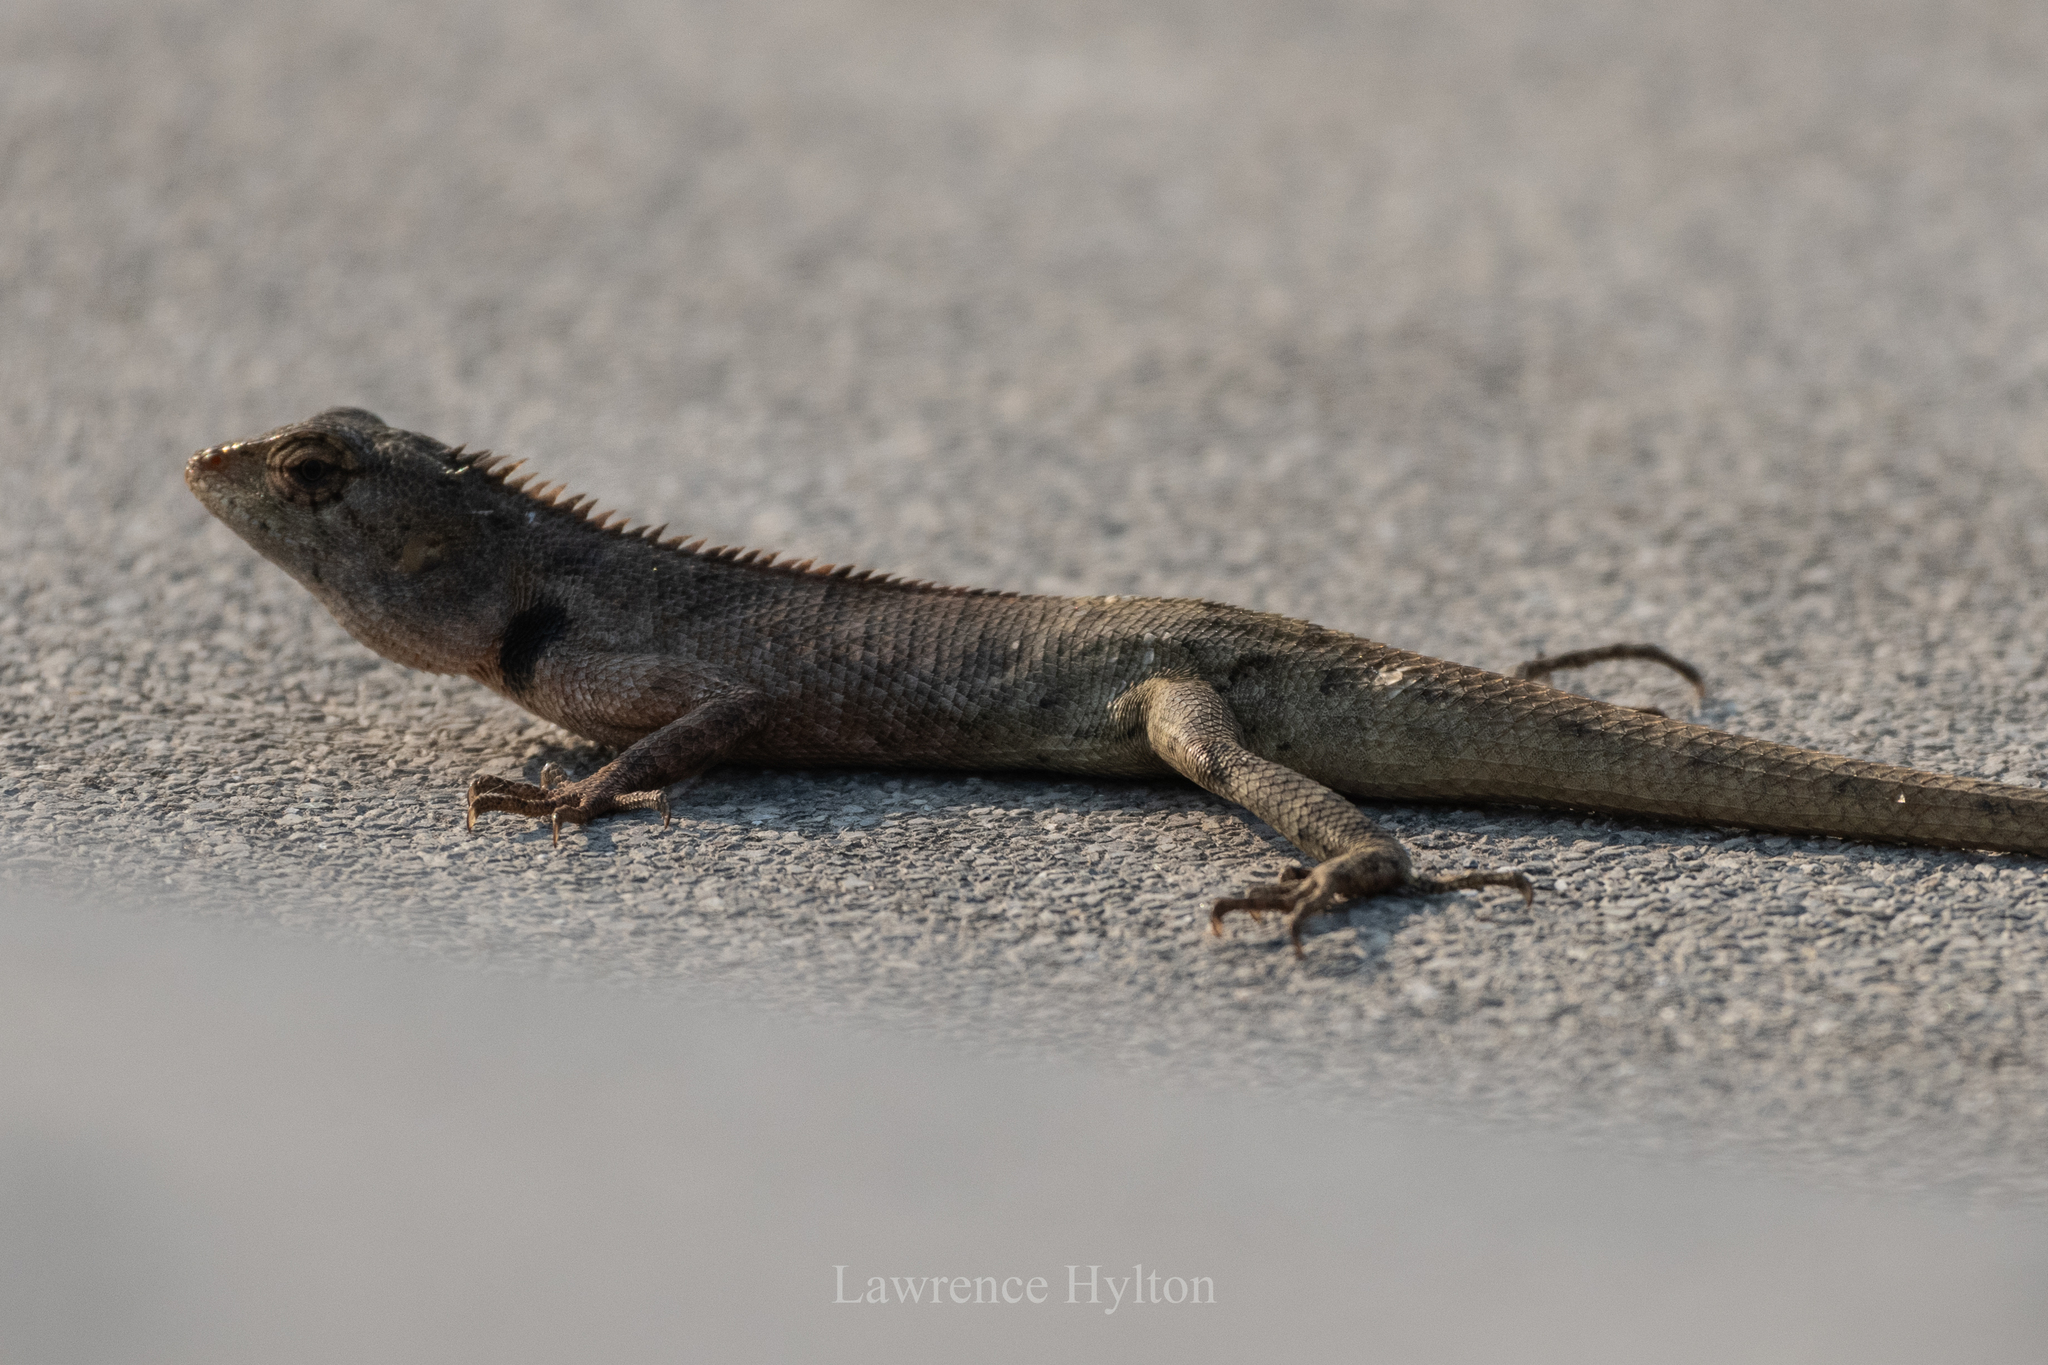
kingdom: Animalia
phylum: Chordata
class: Squamata
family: Agamidae
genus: Calotes
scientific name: Calotes versicolor
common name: Oriental garden lizard
